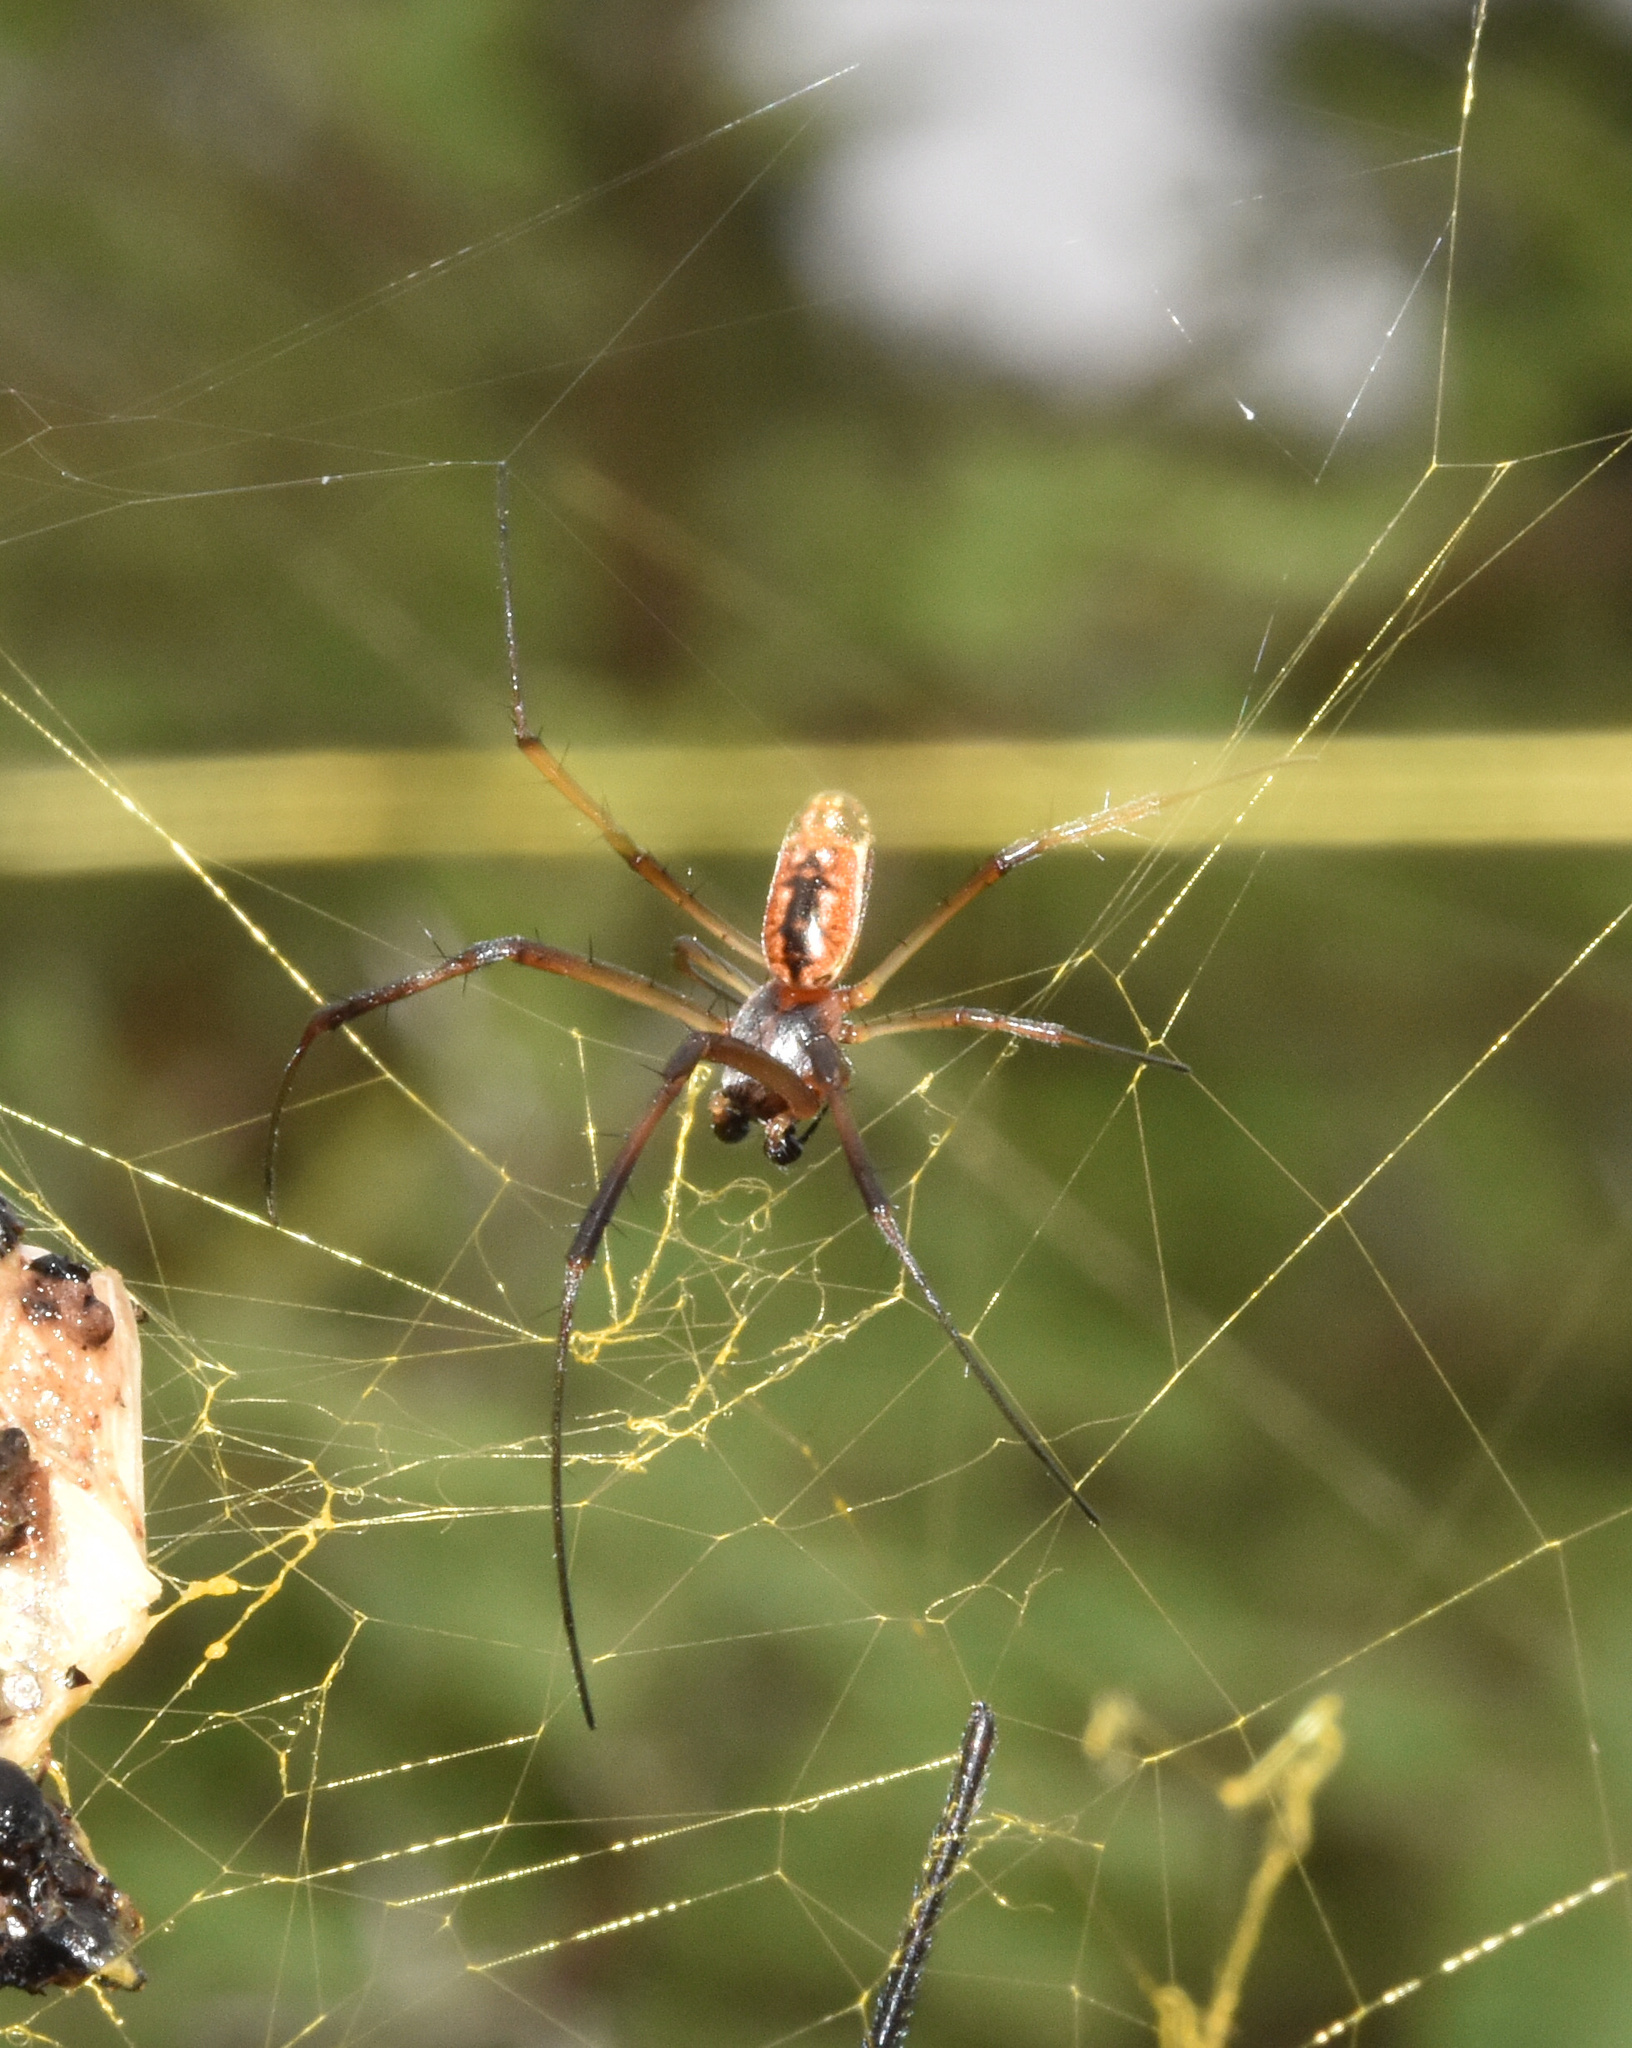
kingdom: Animalia
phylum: Arthropoda
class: Arachnida
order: Araneae
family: Araneidae
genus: Trichonephila
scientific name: Trichonephila senegalensis
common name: Banded golden orb weaver
